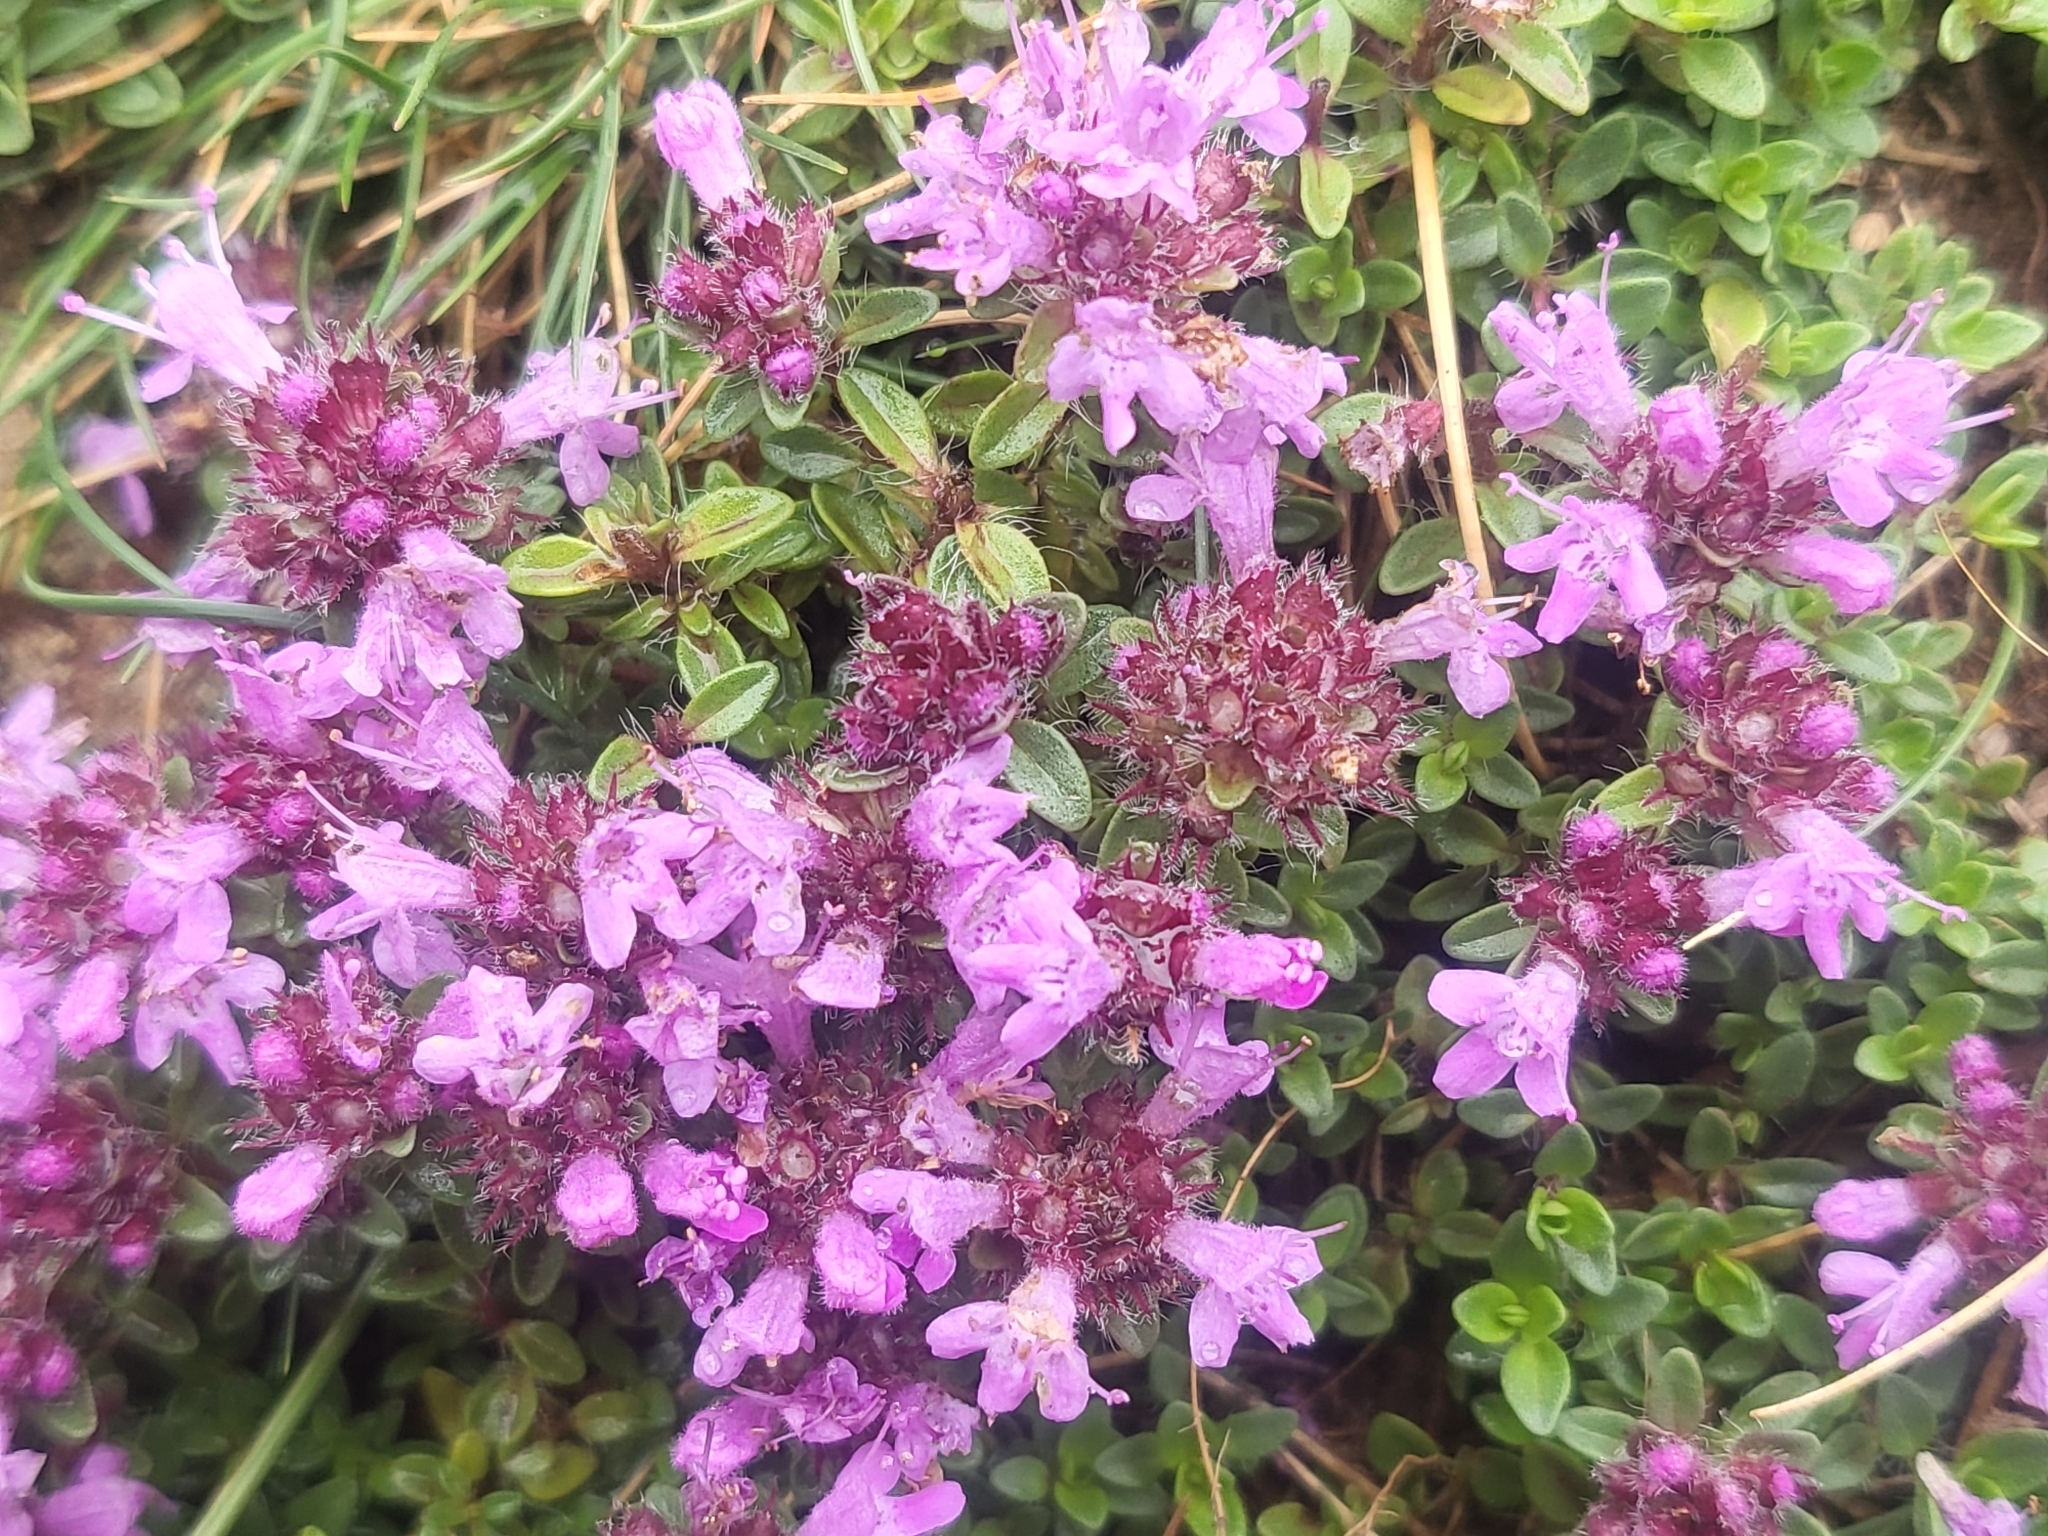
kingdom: Plantae
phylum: Tracheophyta
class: Magnoliopsida
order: Lamiales
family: Lamiaceae
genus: Thymus
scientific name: Thymus praecox
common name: Wild thyme
